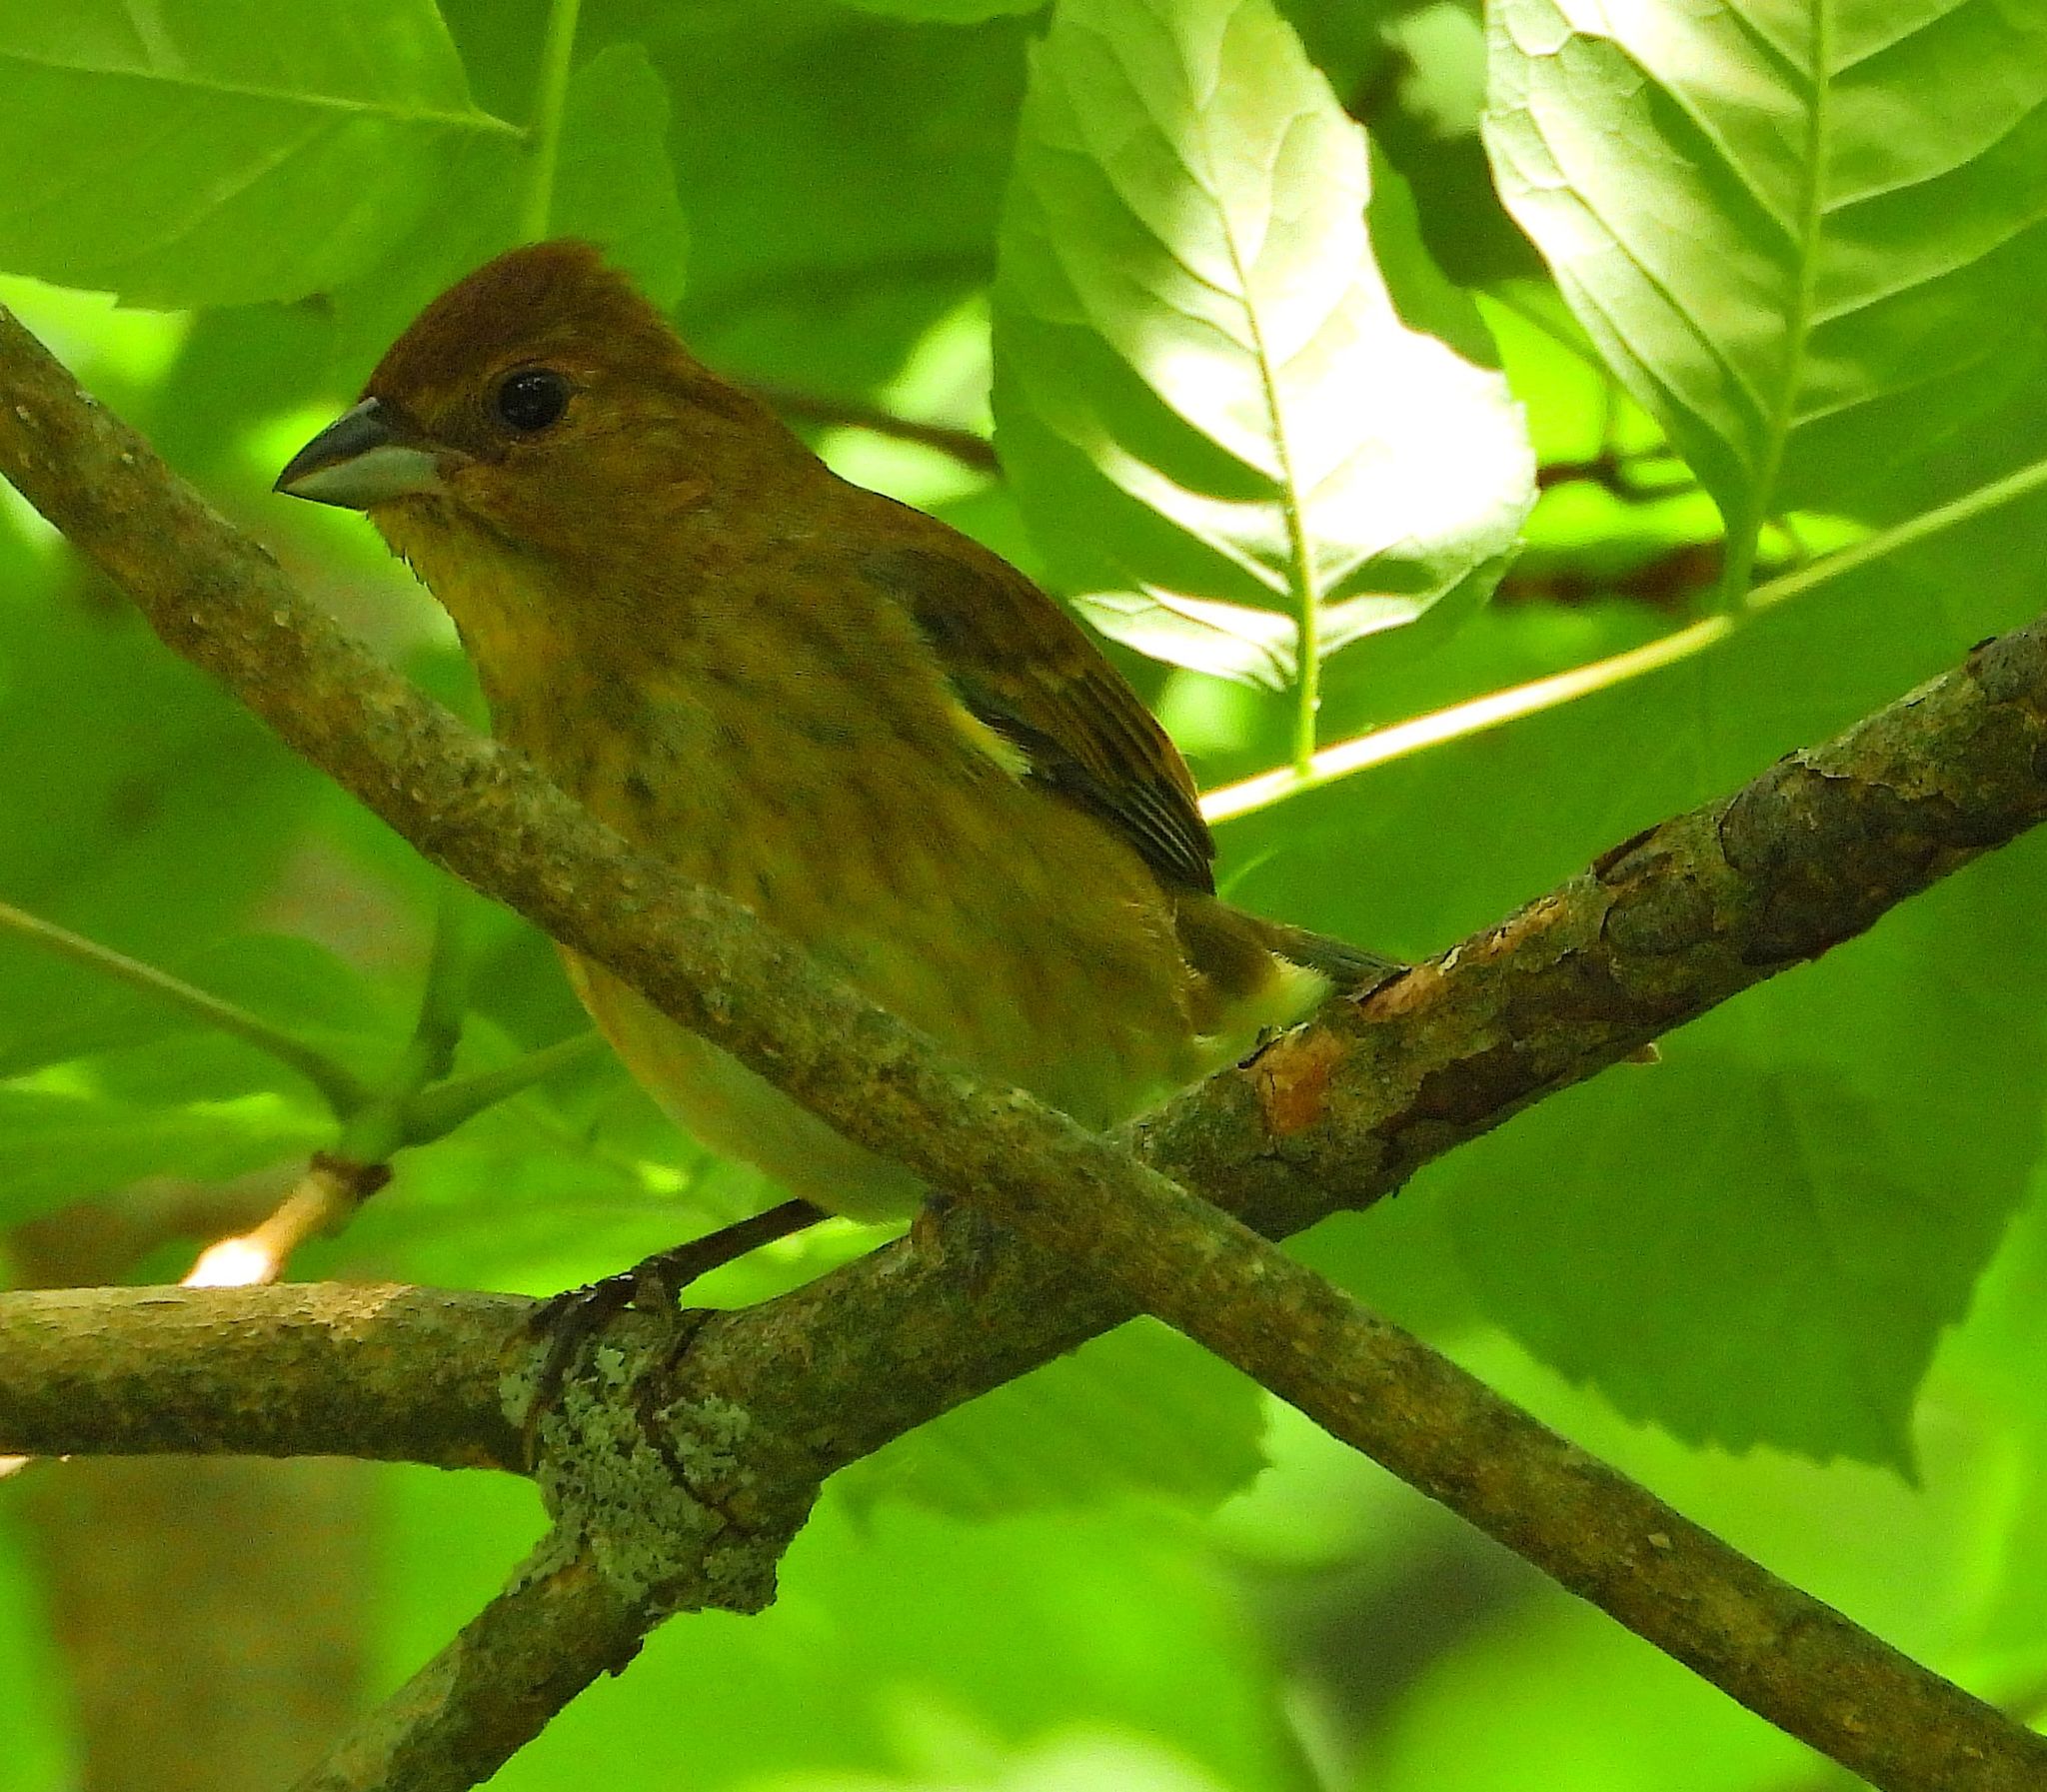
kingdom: Animalia
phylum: Chordata
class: Aves
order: Passeriformes
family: Cardinalidae
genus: Passerina
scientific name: Passerina cyanea
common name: Indigo bunting
